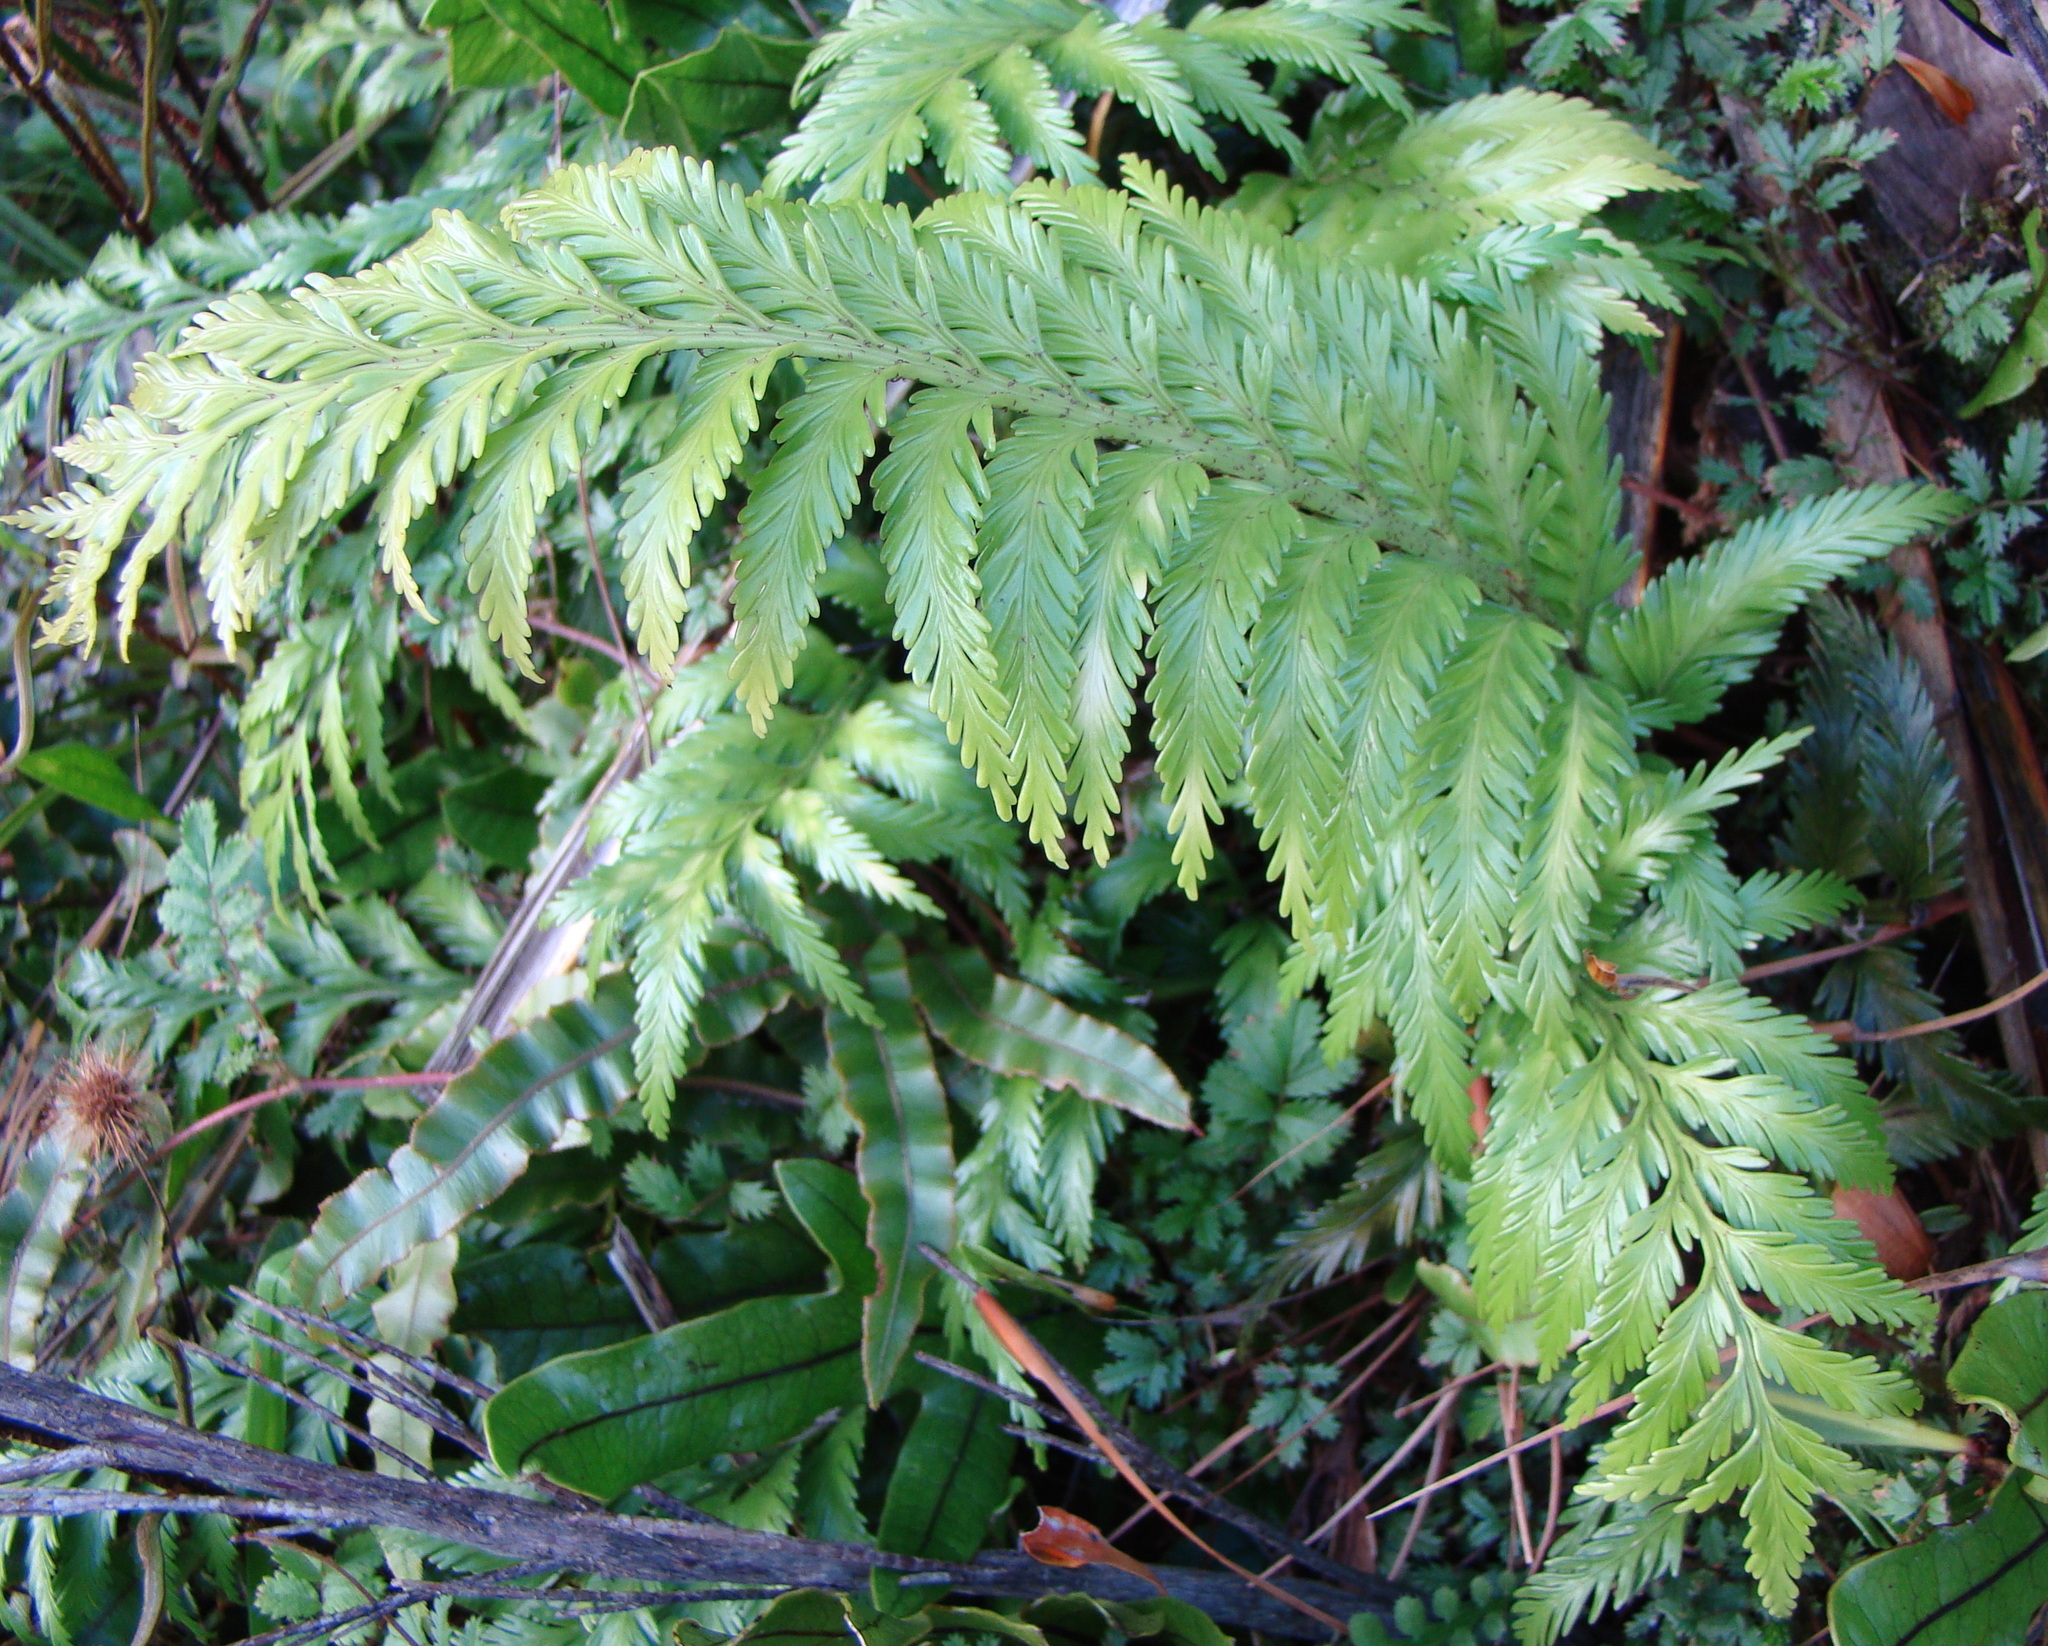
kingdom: Plantae
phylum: Tracheophyta
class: Polypodiopsida
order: Polypodiales
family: Aspleniaceae
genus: Asplenium
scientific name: Asplenium appendiculatum
